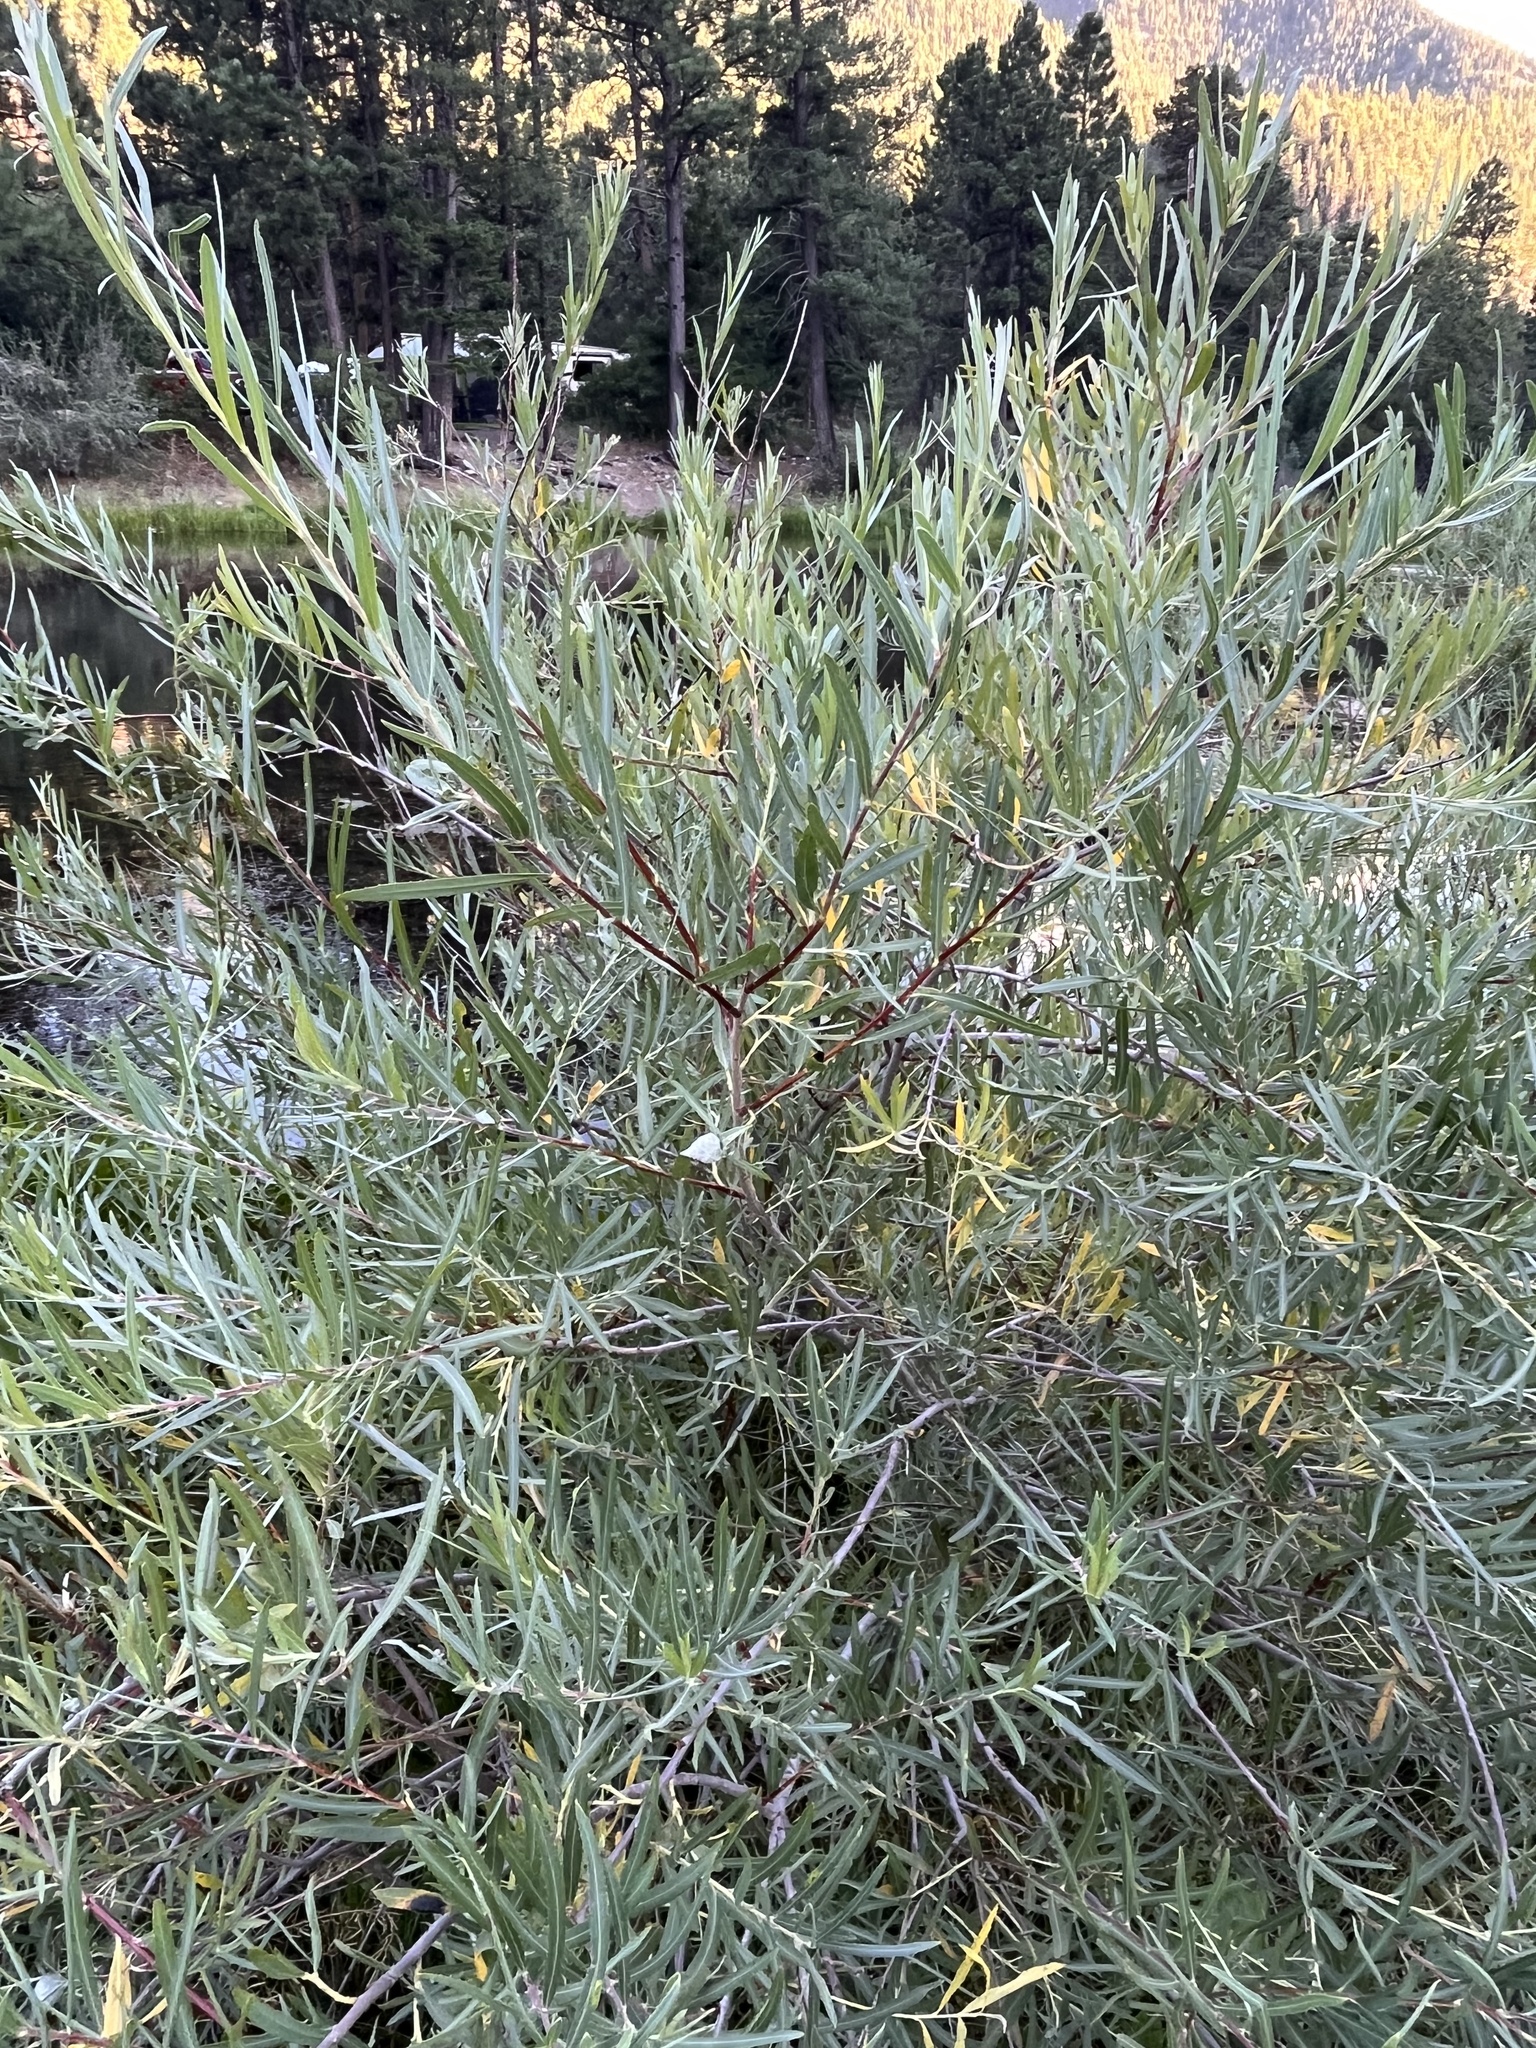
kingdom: Animalia
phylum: Arthropoda
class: Insecta
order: Diptera
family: Cecidomyiidae
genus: Rabdophaga
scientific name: Rabdophaga strobiloides
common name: Willow pinecone gall midge
